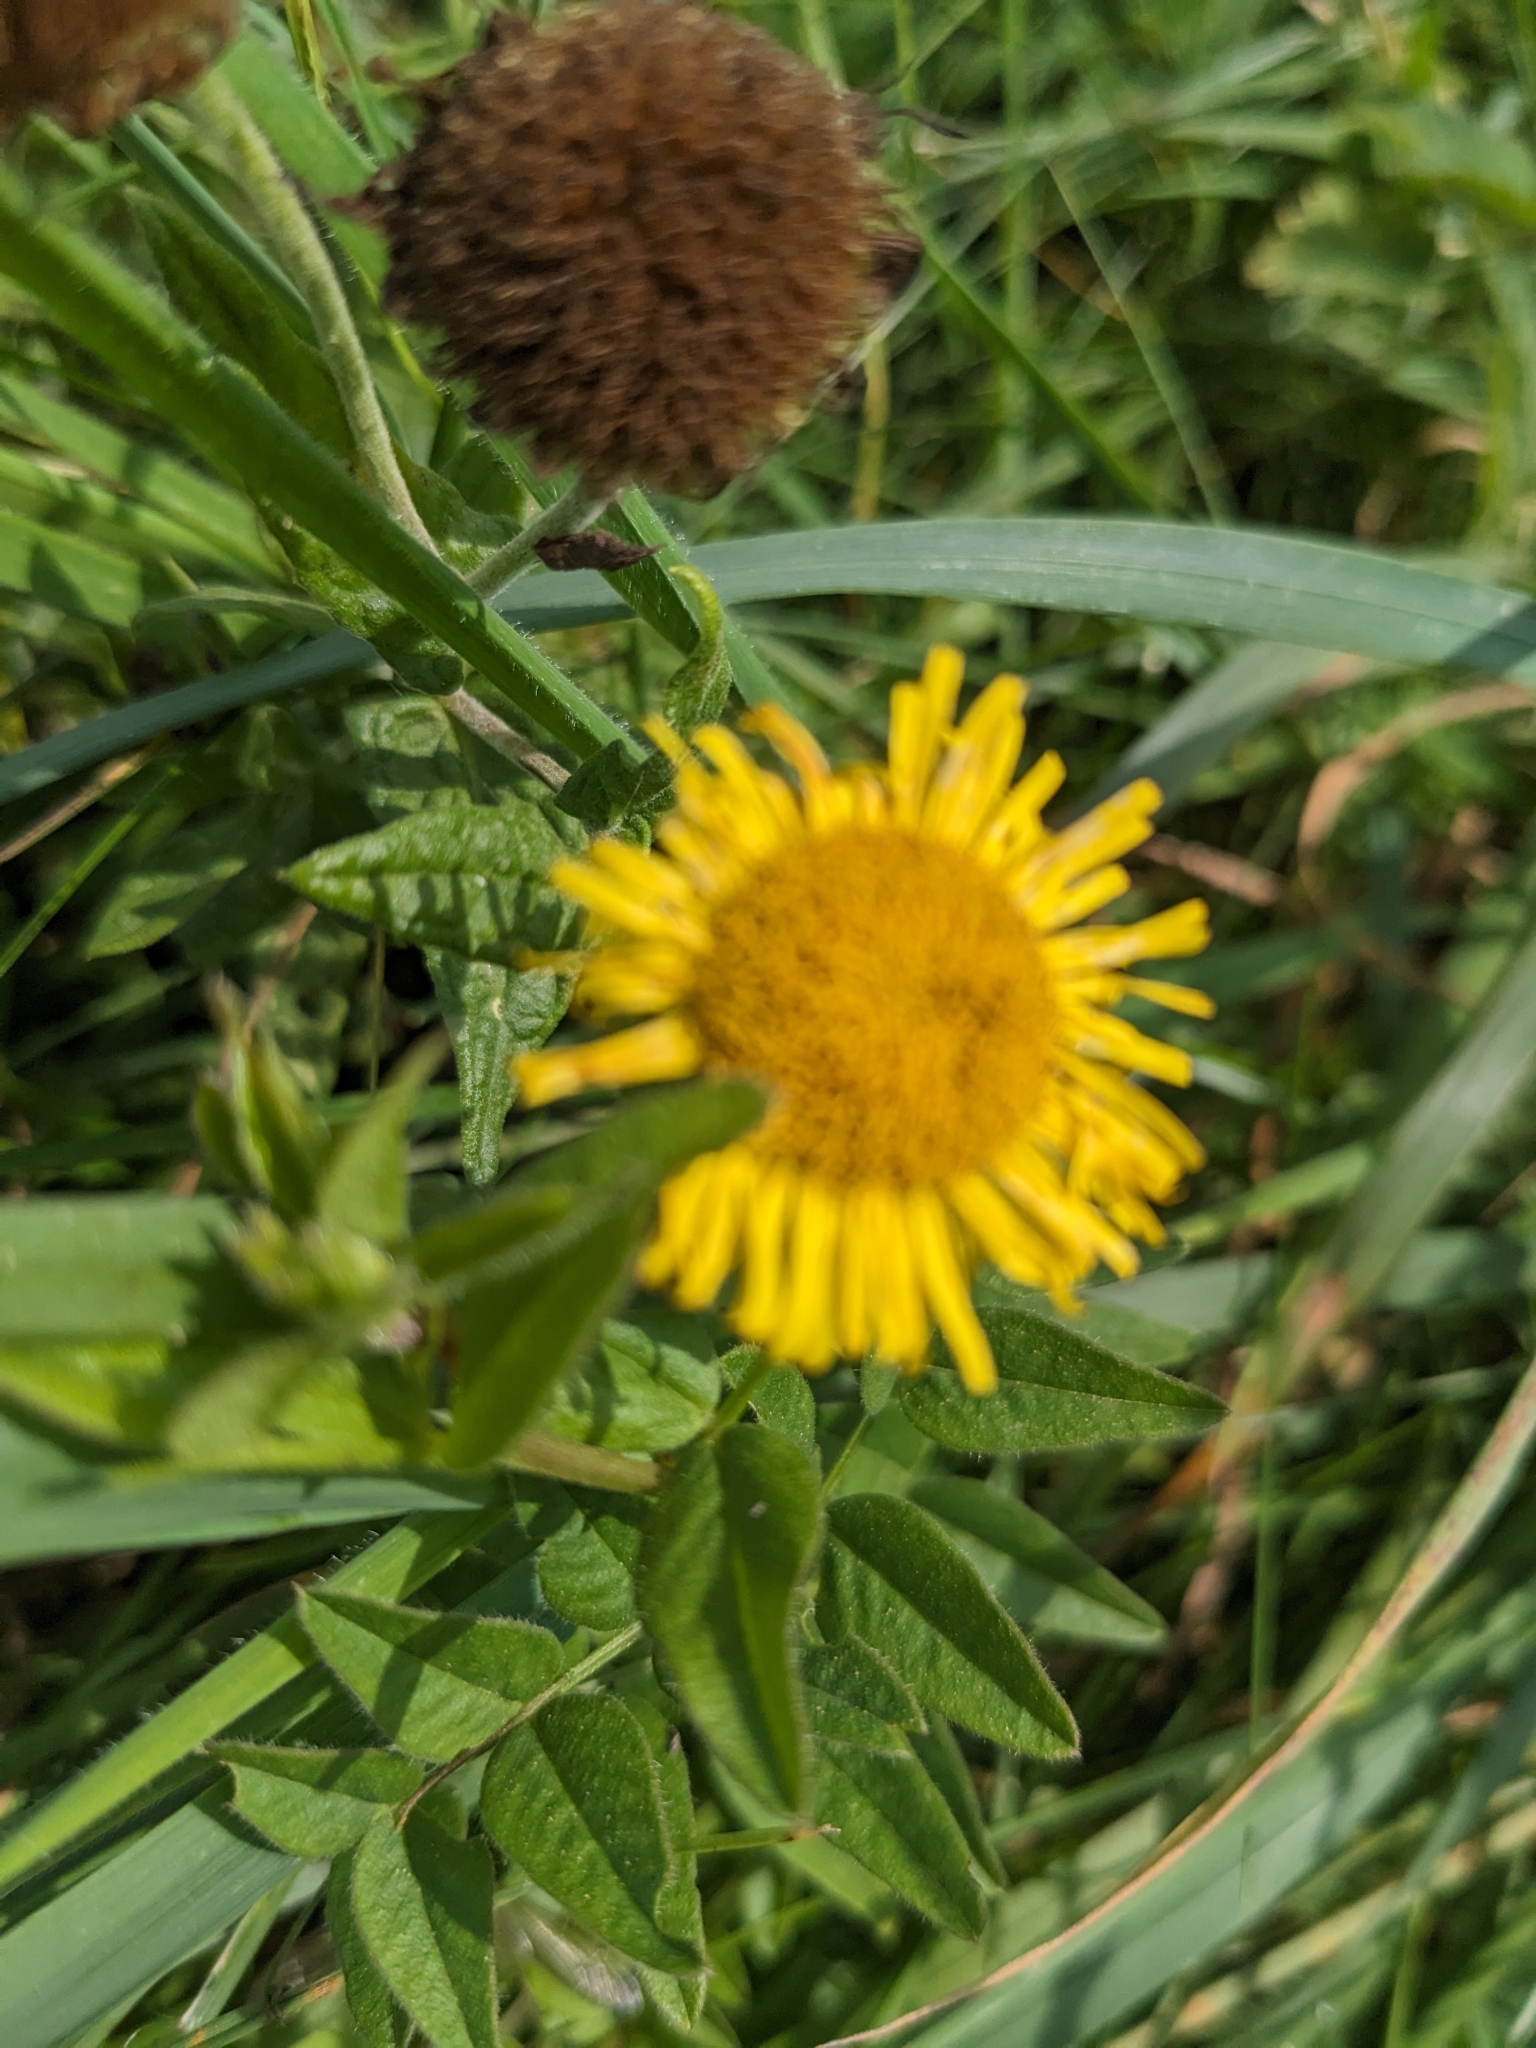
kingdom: Plantae
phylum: Tracheophyta
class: Magnoliopsida
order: Asterales
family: Asteraceae
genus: Pulicaria
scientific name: Pulicaria dysenterica
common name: Common fleabane
